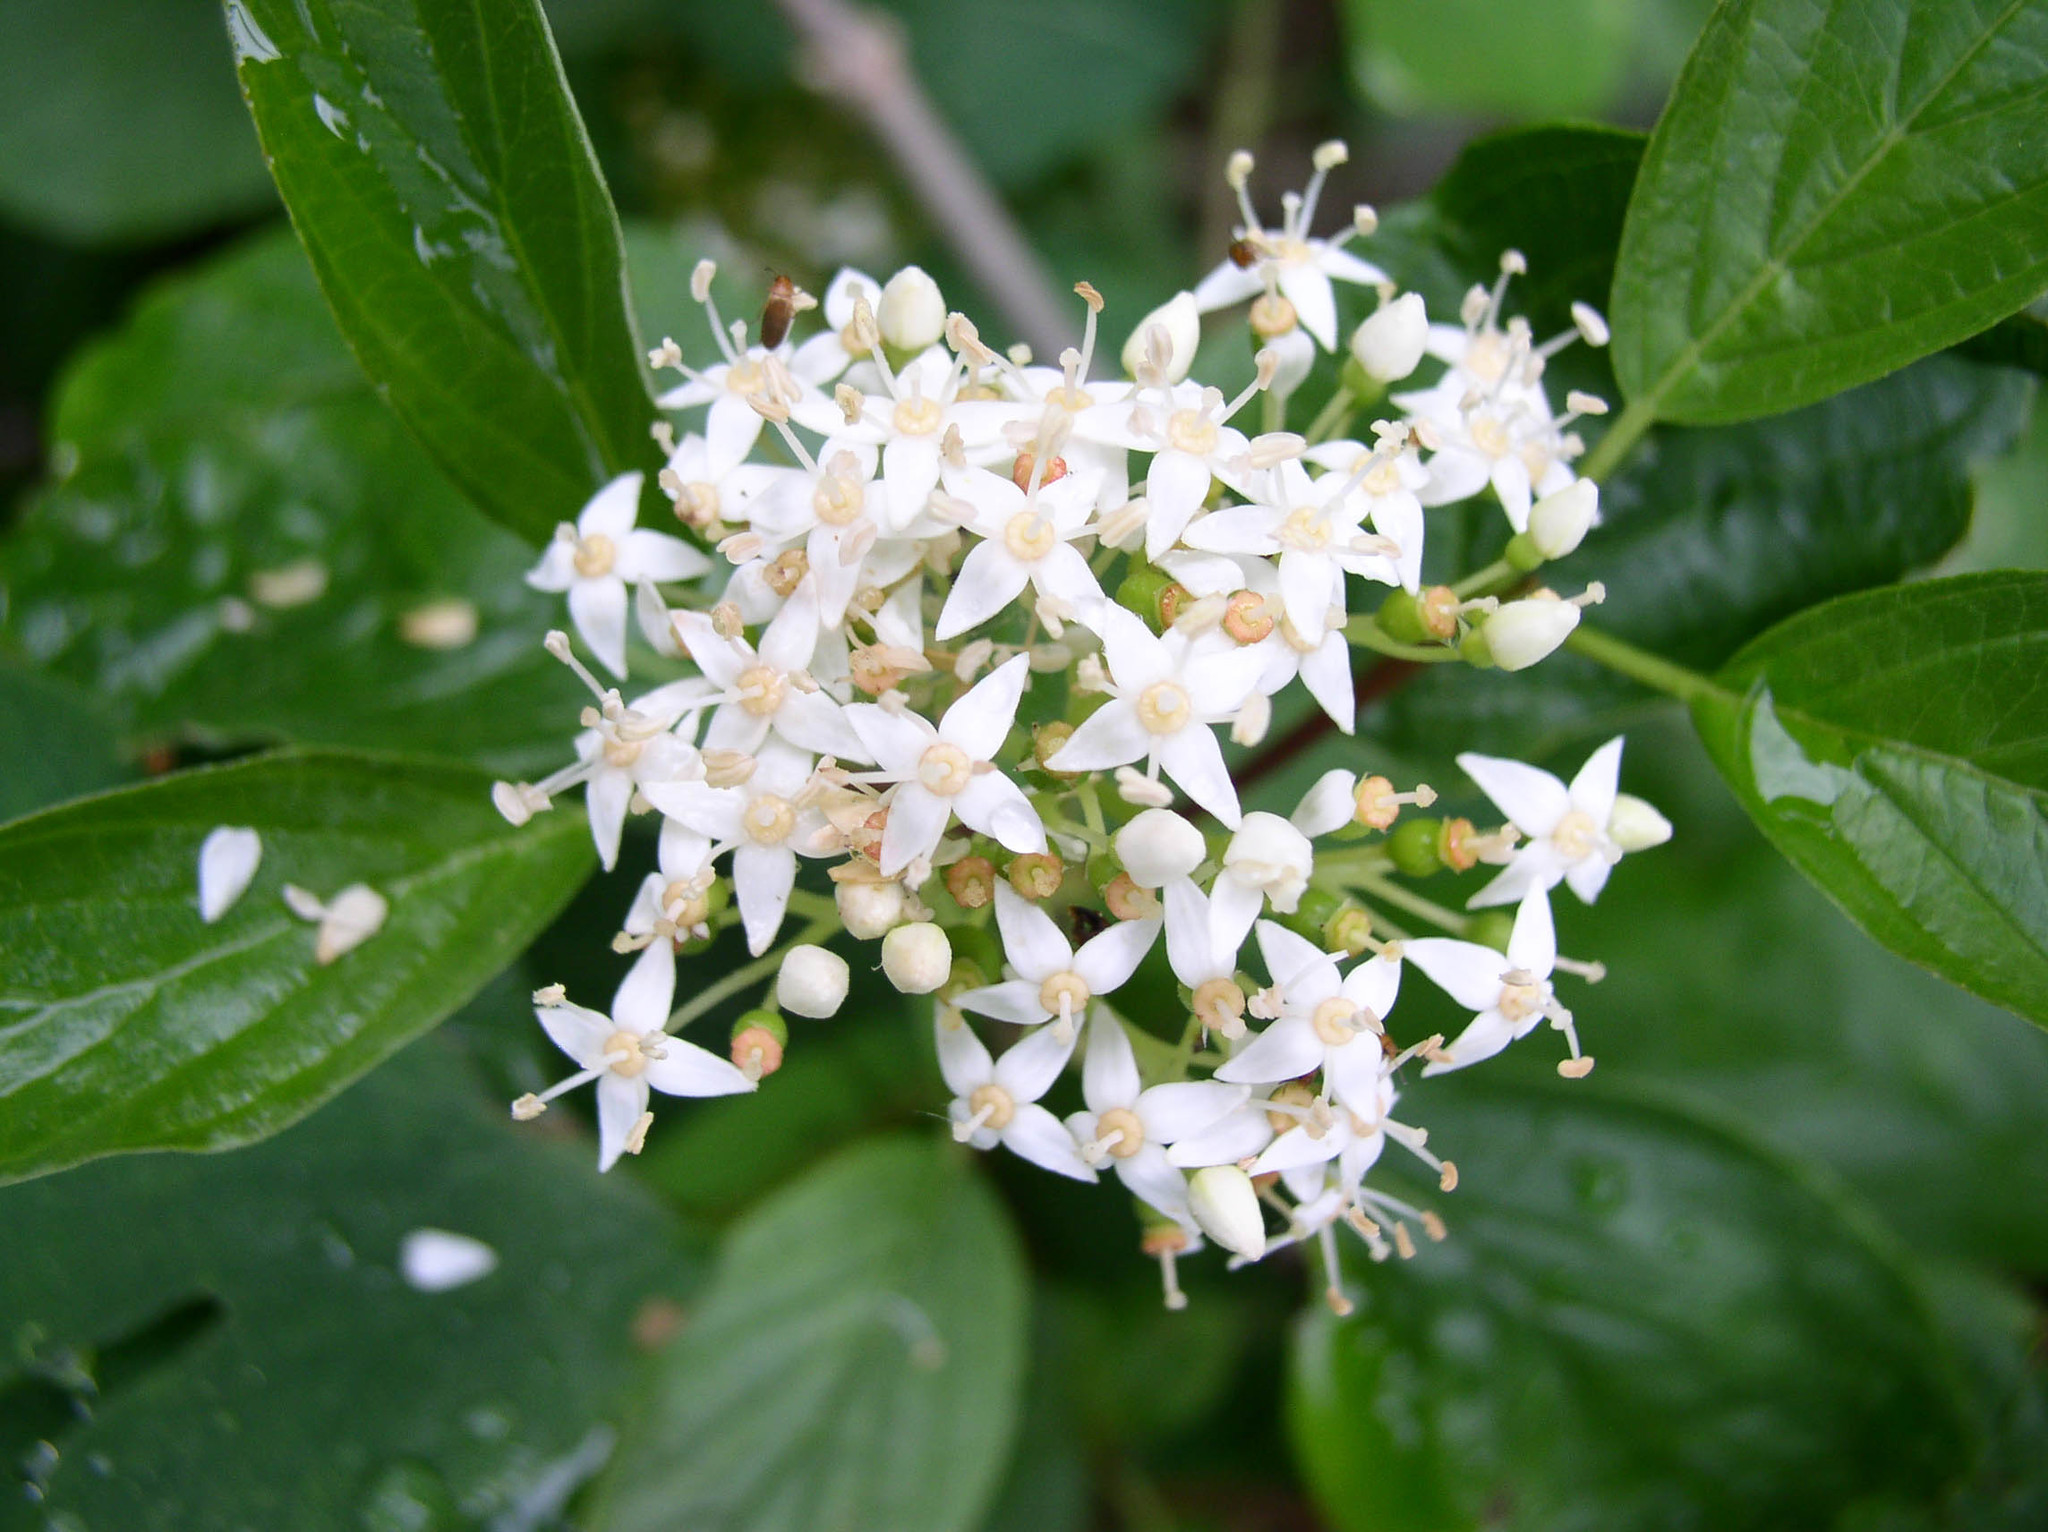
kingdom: Plantae
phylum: Tracheophyta
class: Magnoliopsida
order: Cornales
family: Cornaceae
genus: Cornus
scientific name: Cornus sericea
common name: Red-osier dogwood
